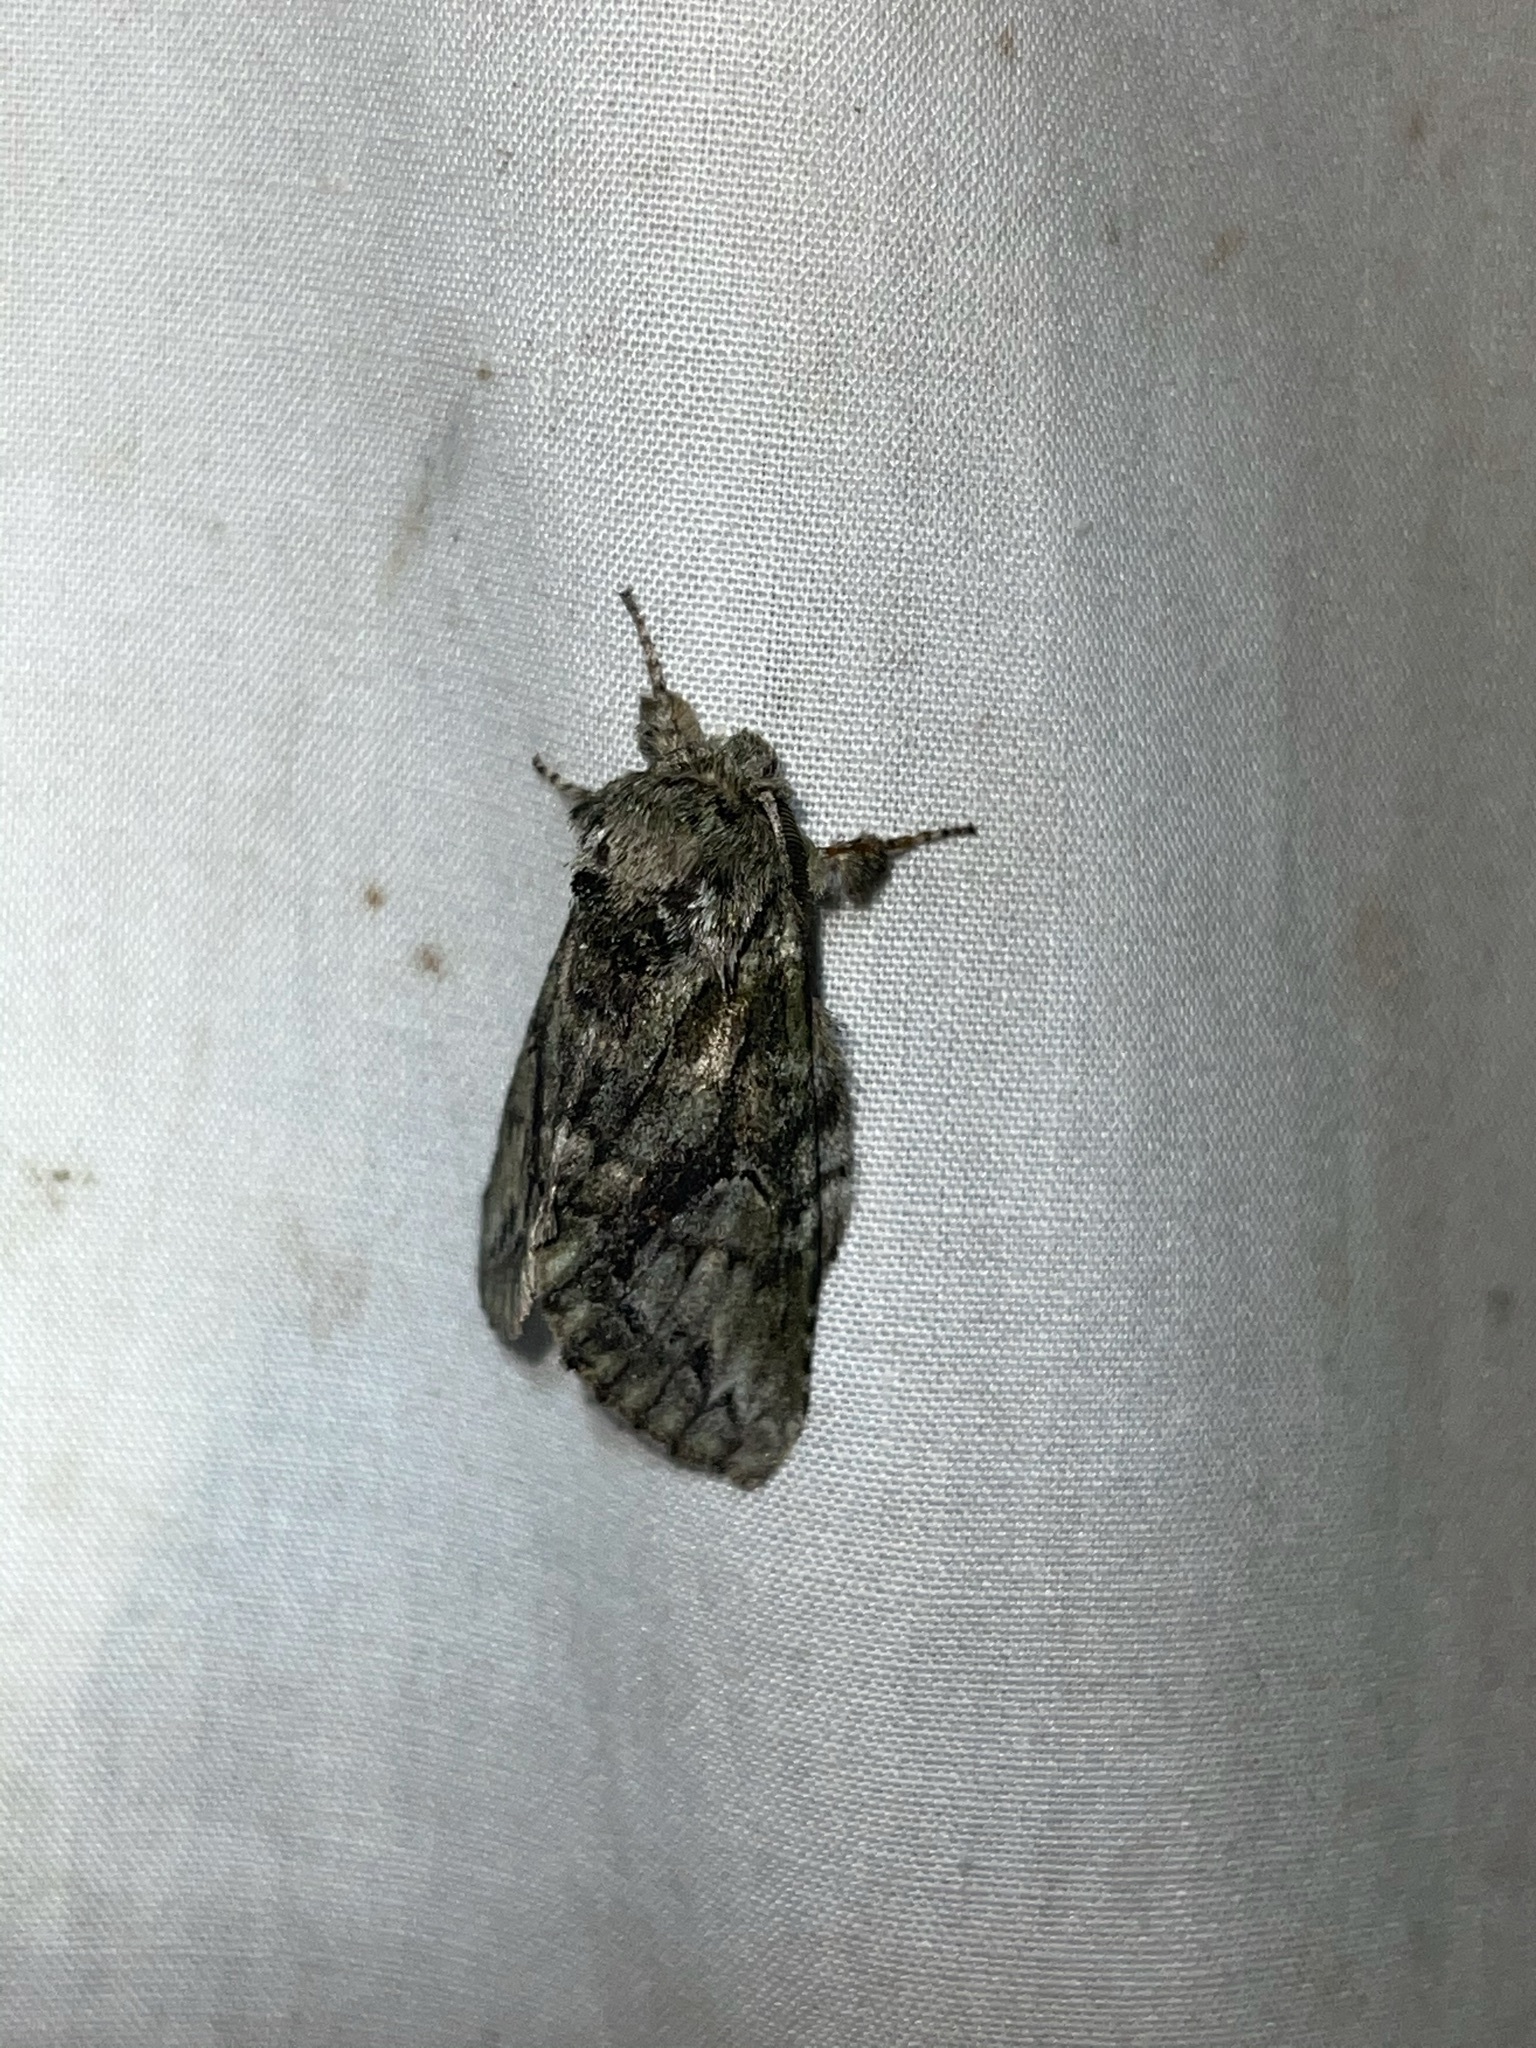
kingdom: Animalia
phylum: Arthropoda
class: Insecta
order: Lepidoptera
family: Notodontidae
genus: Heterocampa
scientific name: Heterocampa
